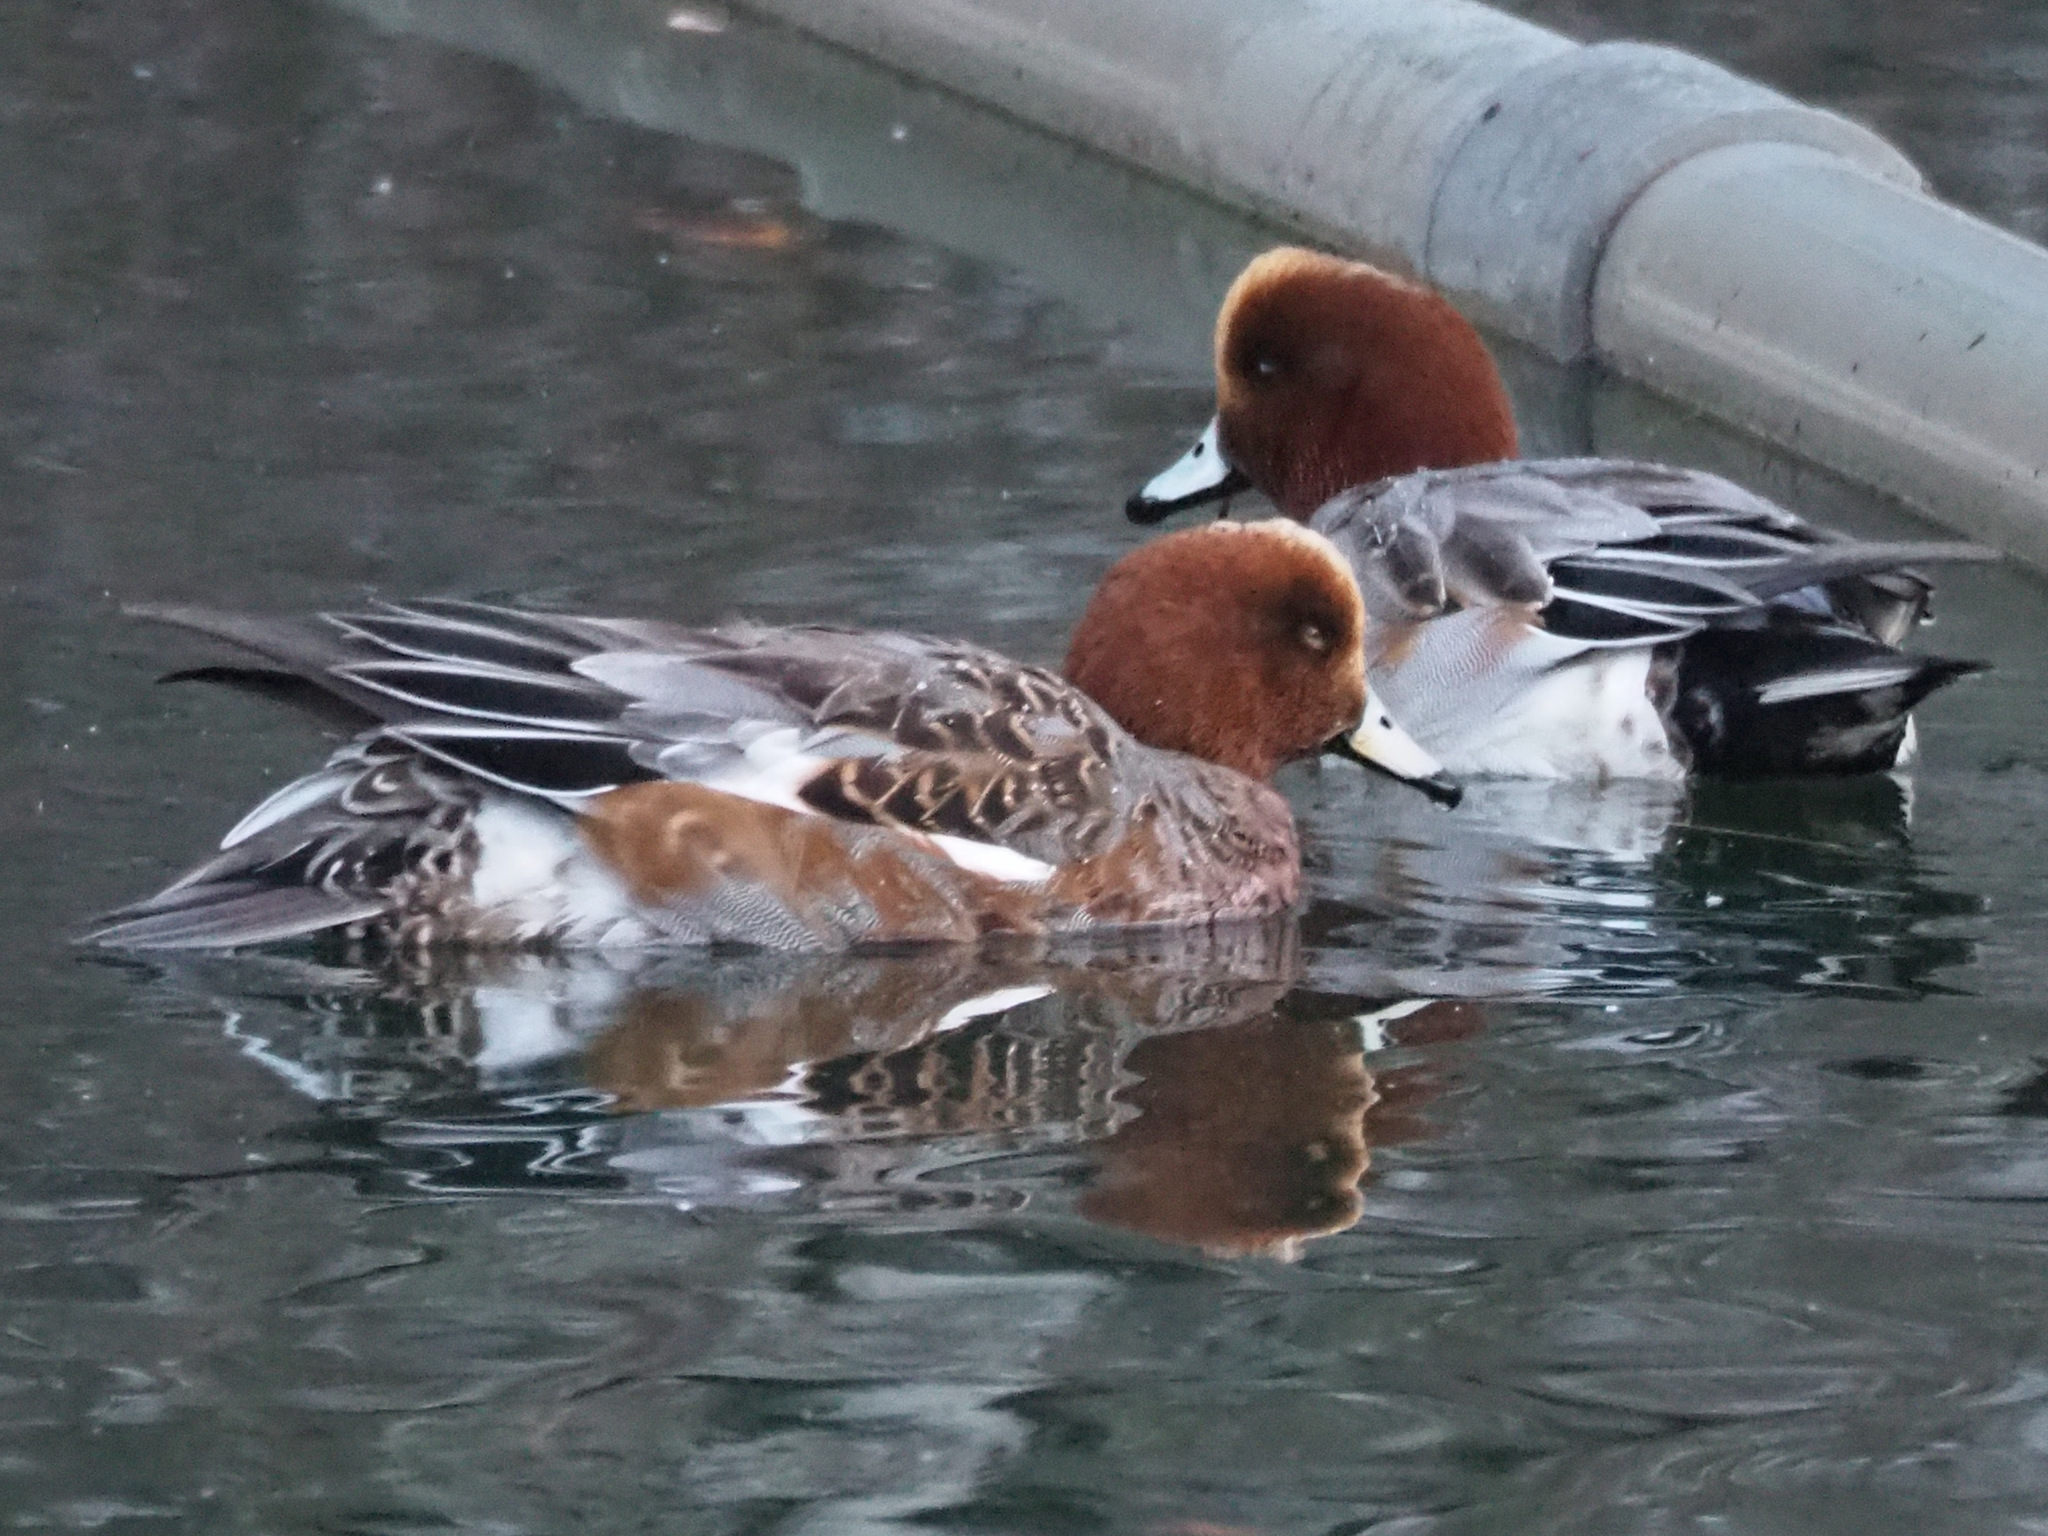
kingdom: Animalia
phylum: Chordata
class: Aves
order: Anseriformes
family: Anatidae
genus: Mareca
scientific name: Mareca penelope
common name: Eurasian wigeon
